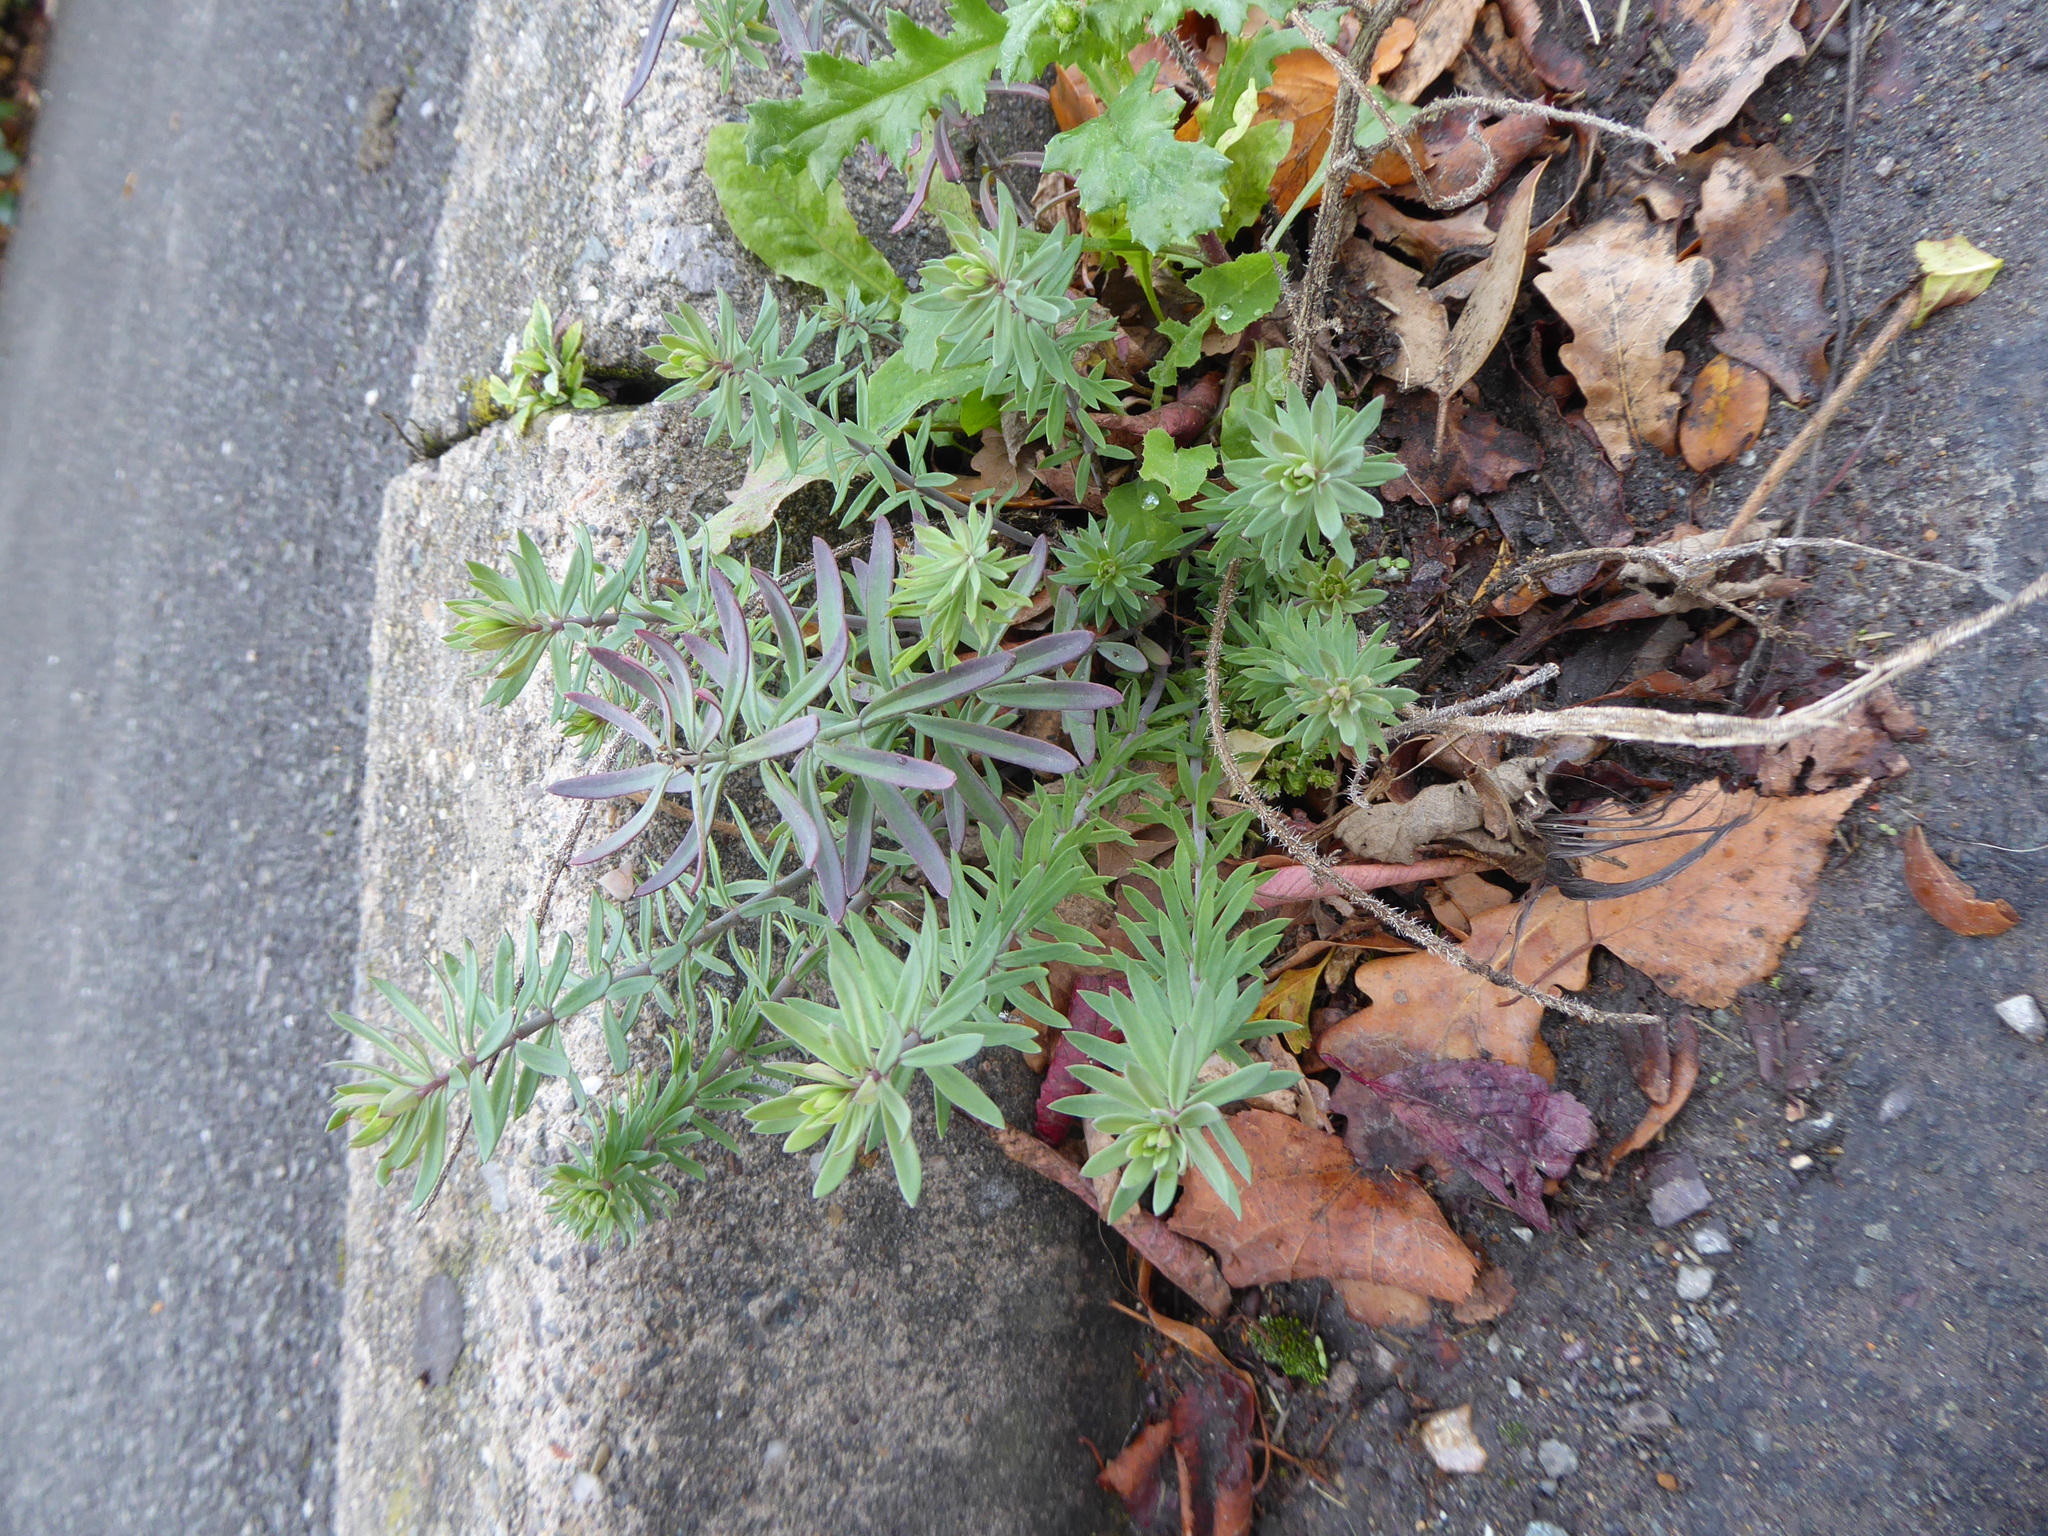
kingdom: Plantae
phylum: Tracheophyta
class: Magnoliopsida
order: Lamiales
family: Plantaginaceae
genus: Linaria
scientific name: Linaria purpurea
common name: Purple toadflax
